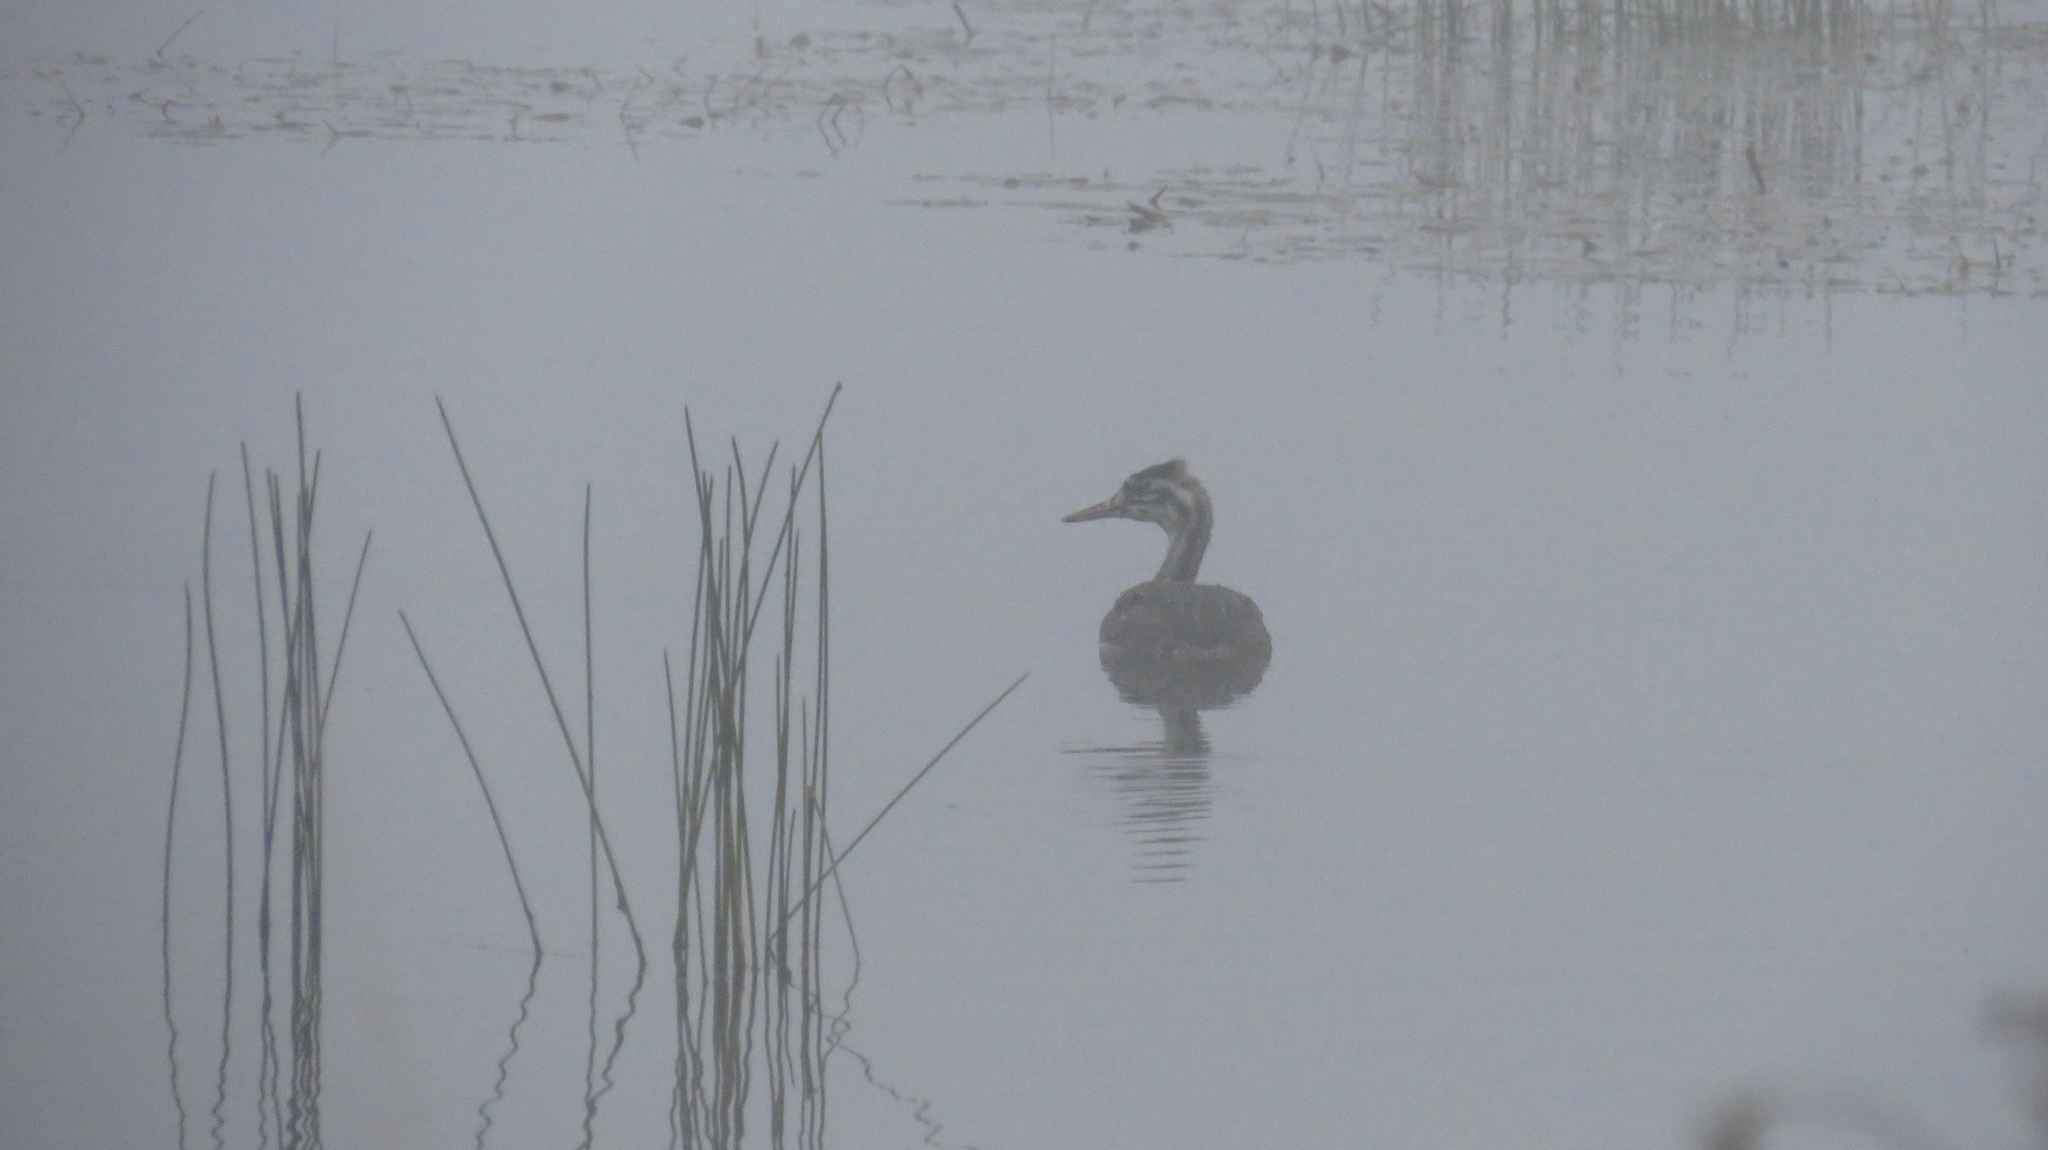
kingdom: Animalia
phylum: Chordata
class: Aves
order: Podicipediformes
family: Podicipedidae
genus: Podiceps
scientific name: Podiceps cristatus
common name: Great crested grebe
